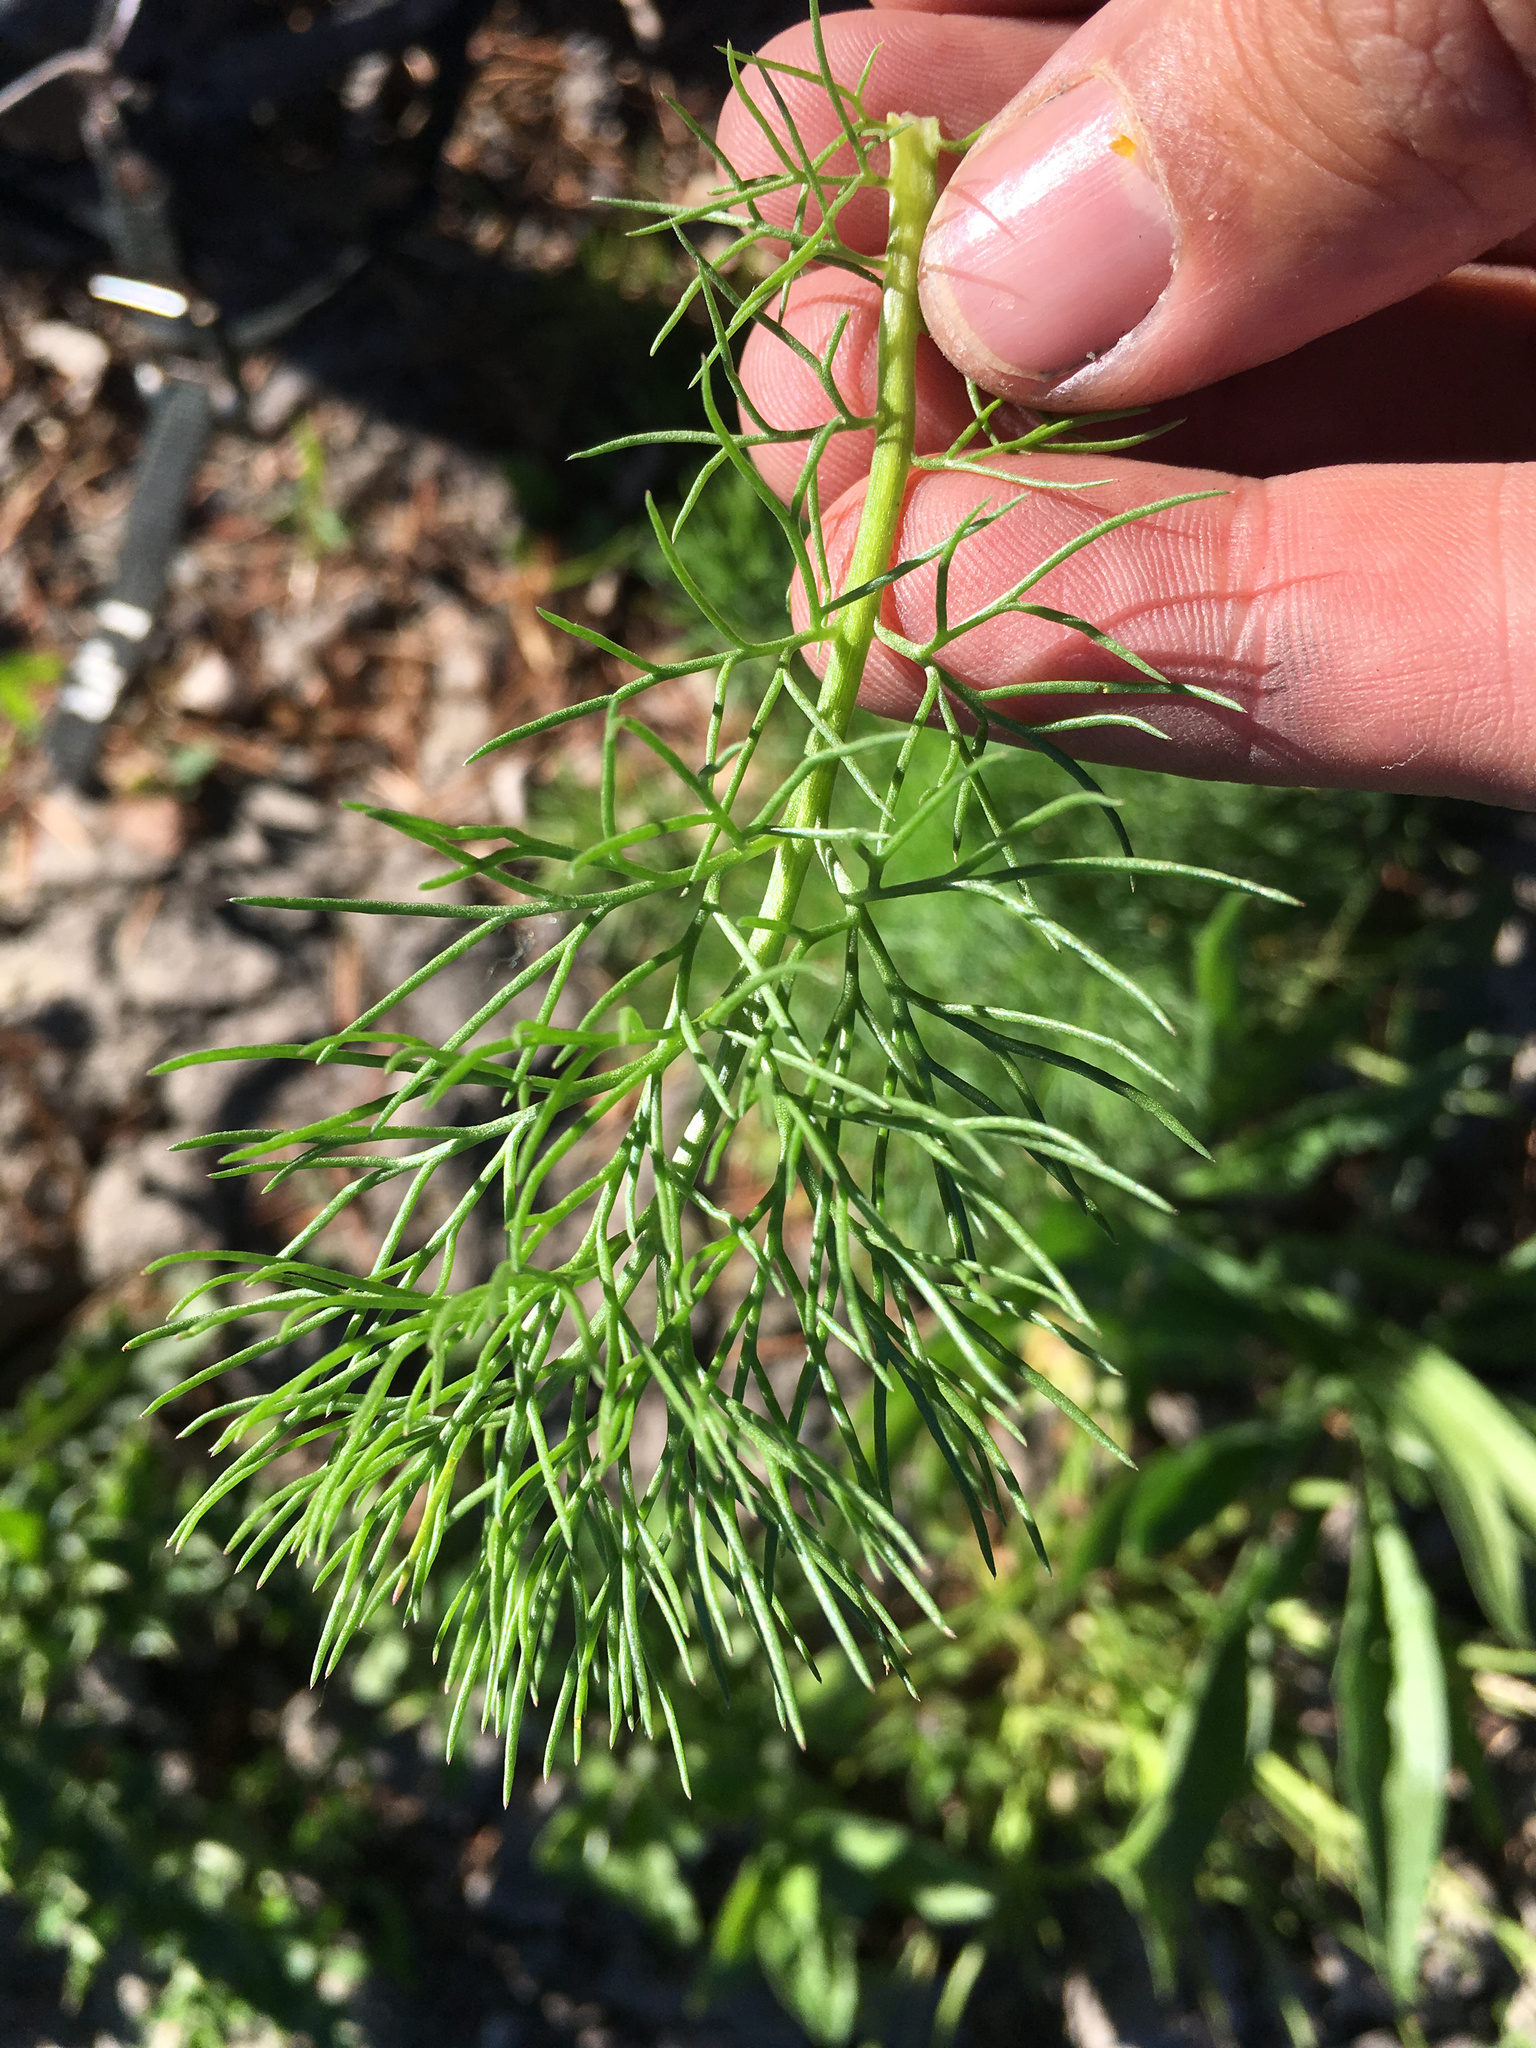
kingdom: Plantae
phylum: Tracheophyta
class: Magnoliopsida
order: Apiales
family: Apiaceae
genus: Foeniculum
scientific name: Foeniculum vulgare
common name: Fennel
